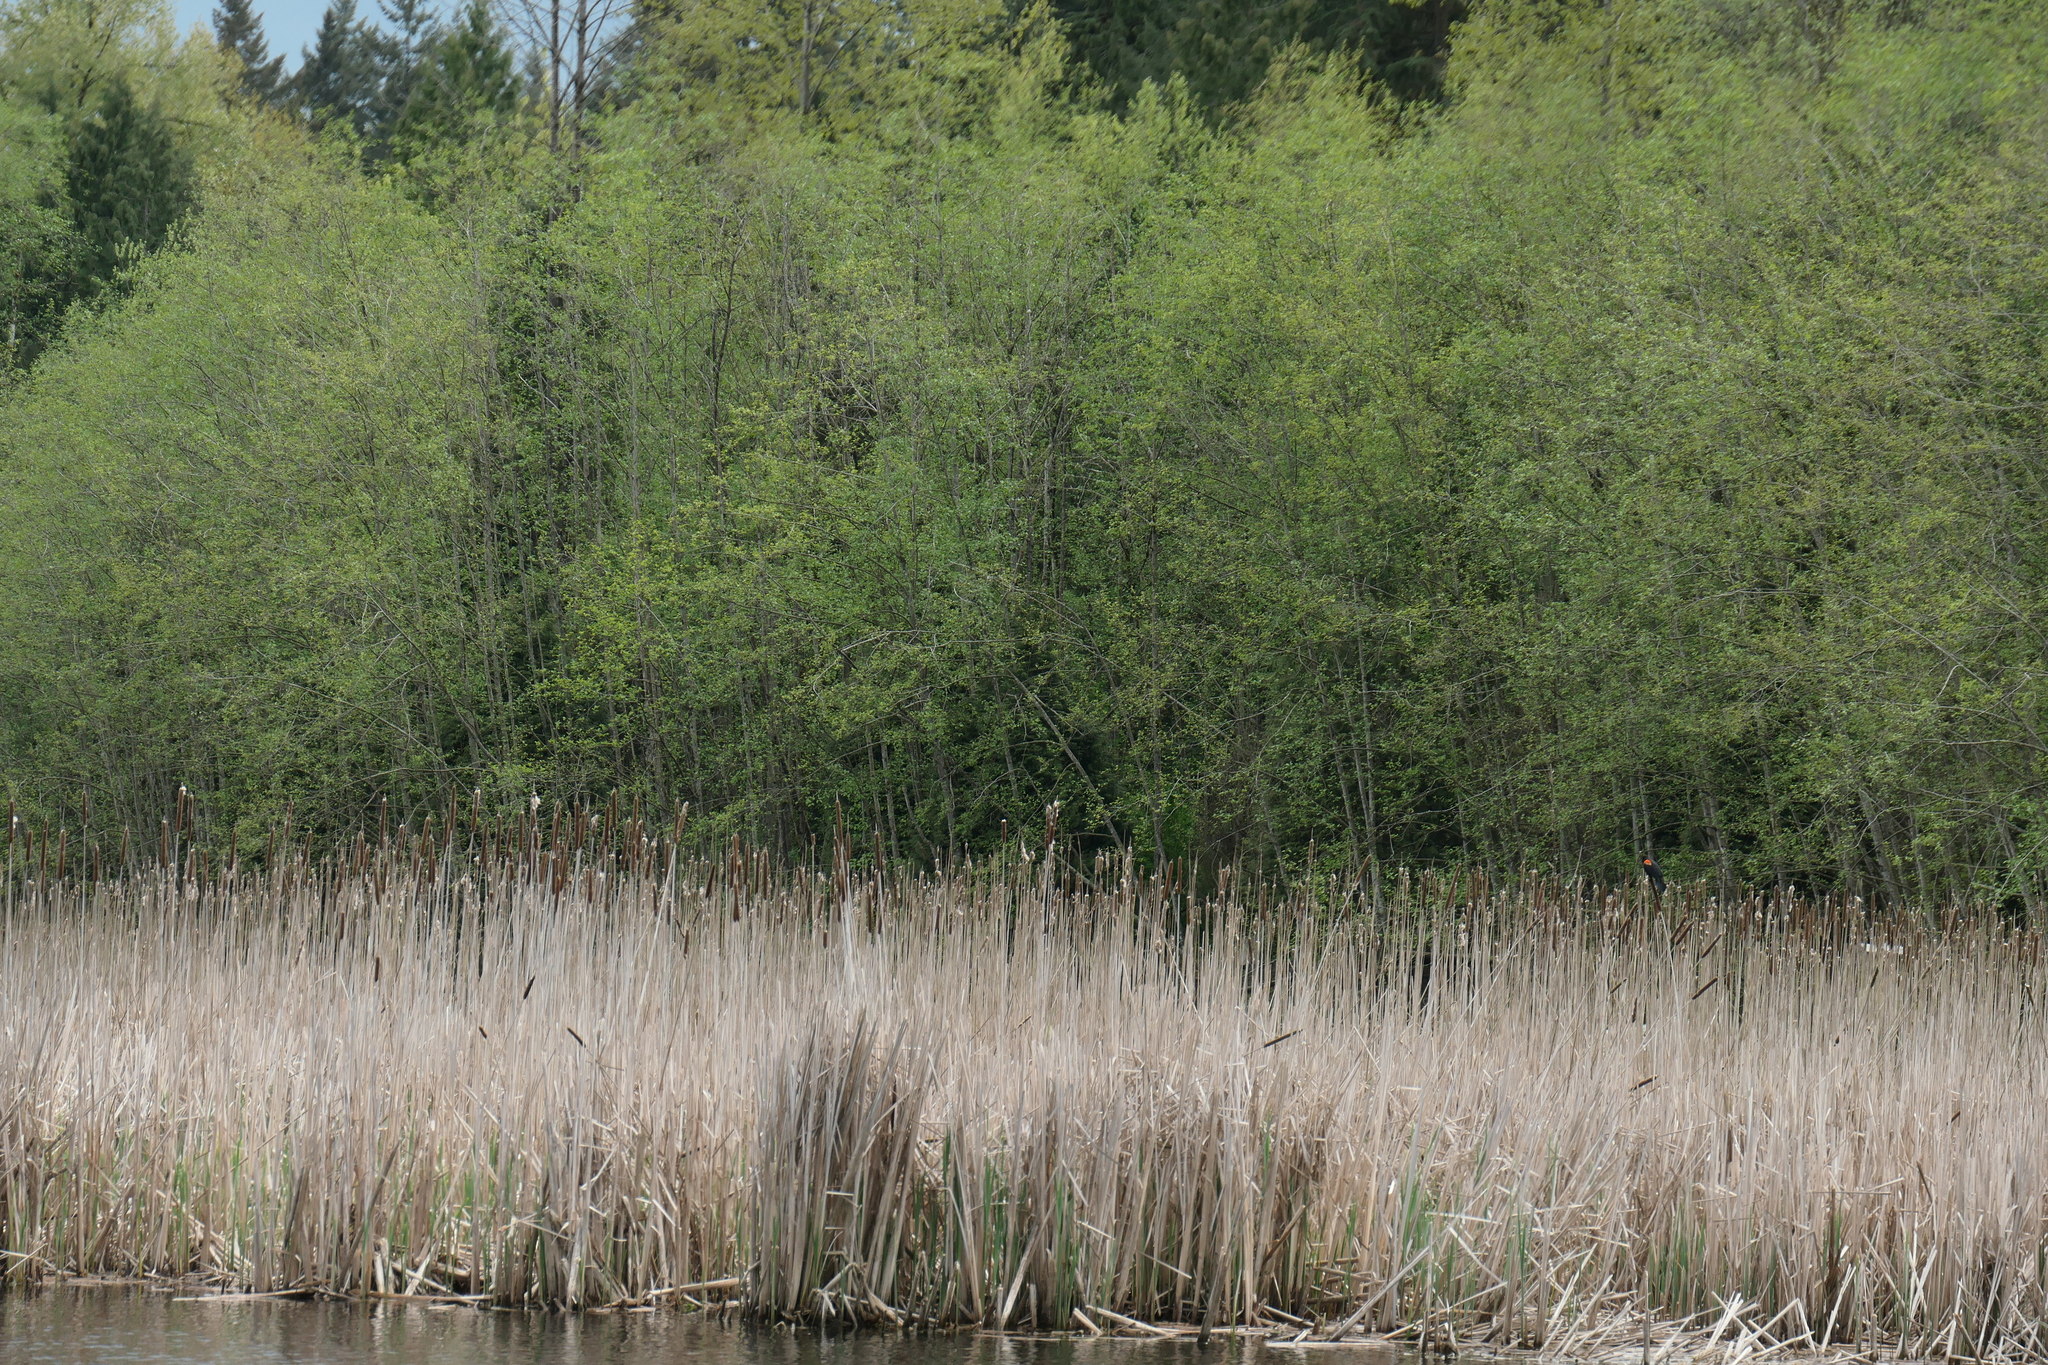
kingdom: Animalia
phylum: Chordata
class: Aves
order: Passeriformes
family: Icteridae
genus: Agelaius
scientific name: Agelaius phoeniceus
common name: Red-winged blackbird
